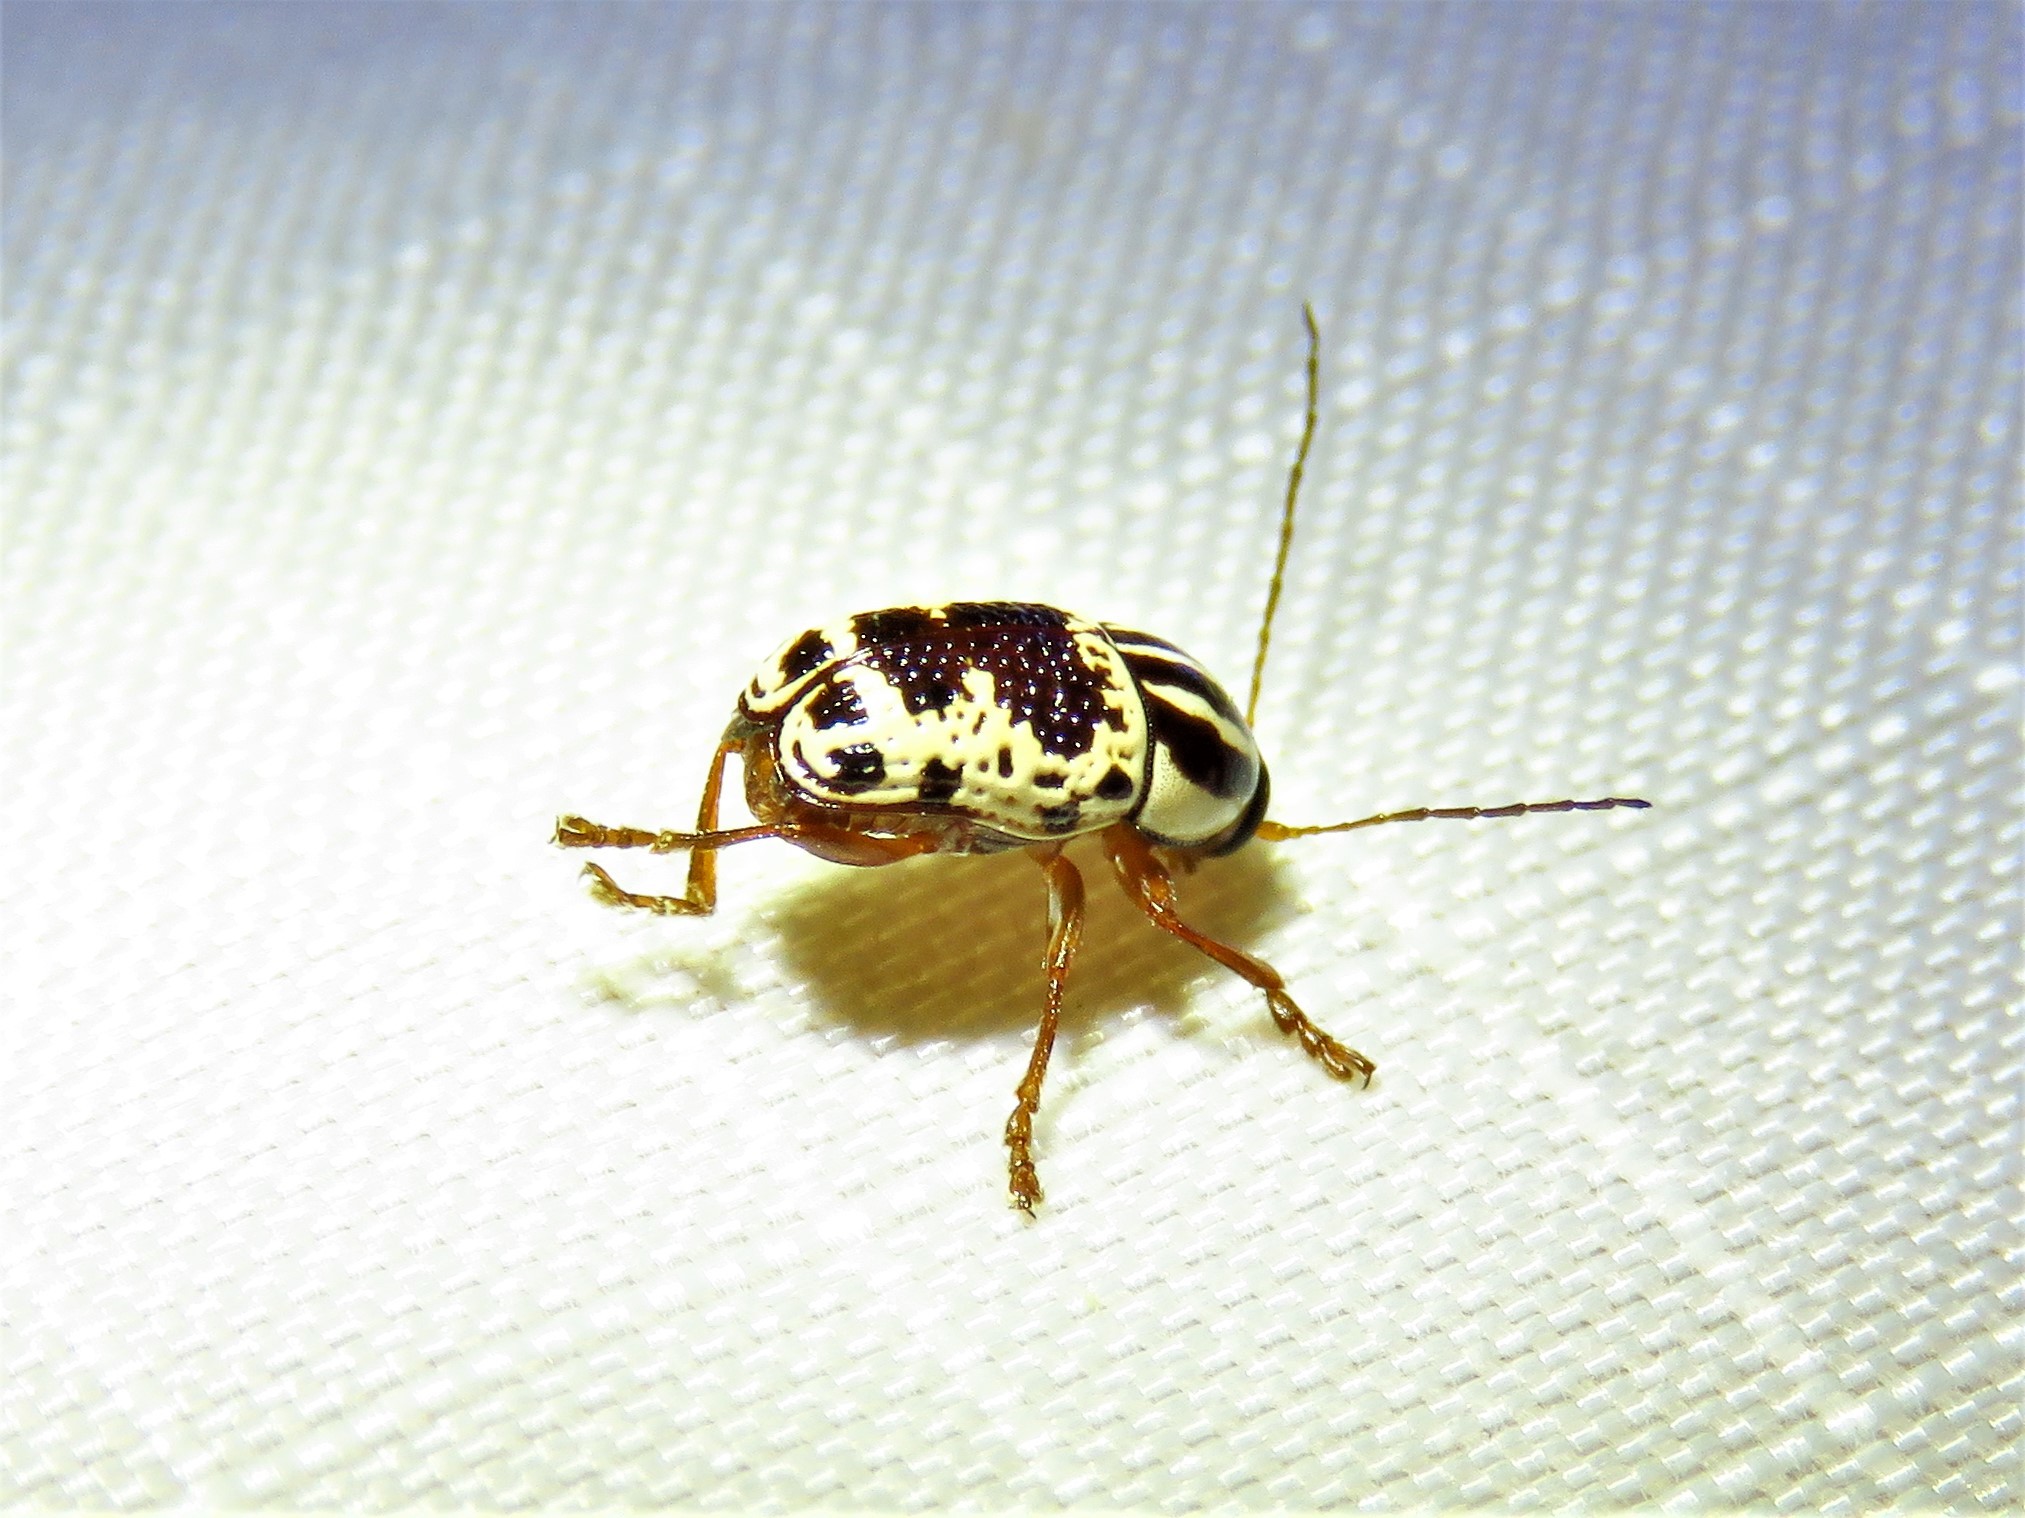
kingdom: Animalia
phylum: Arthropoda
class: Insecta
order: Coleoptera
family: Chrysomelidae
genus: Cryptocephalus
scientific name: Cryptocephalus leucomelas
